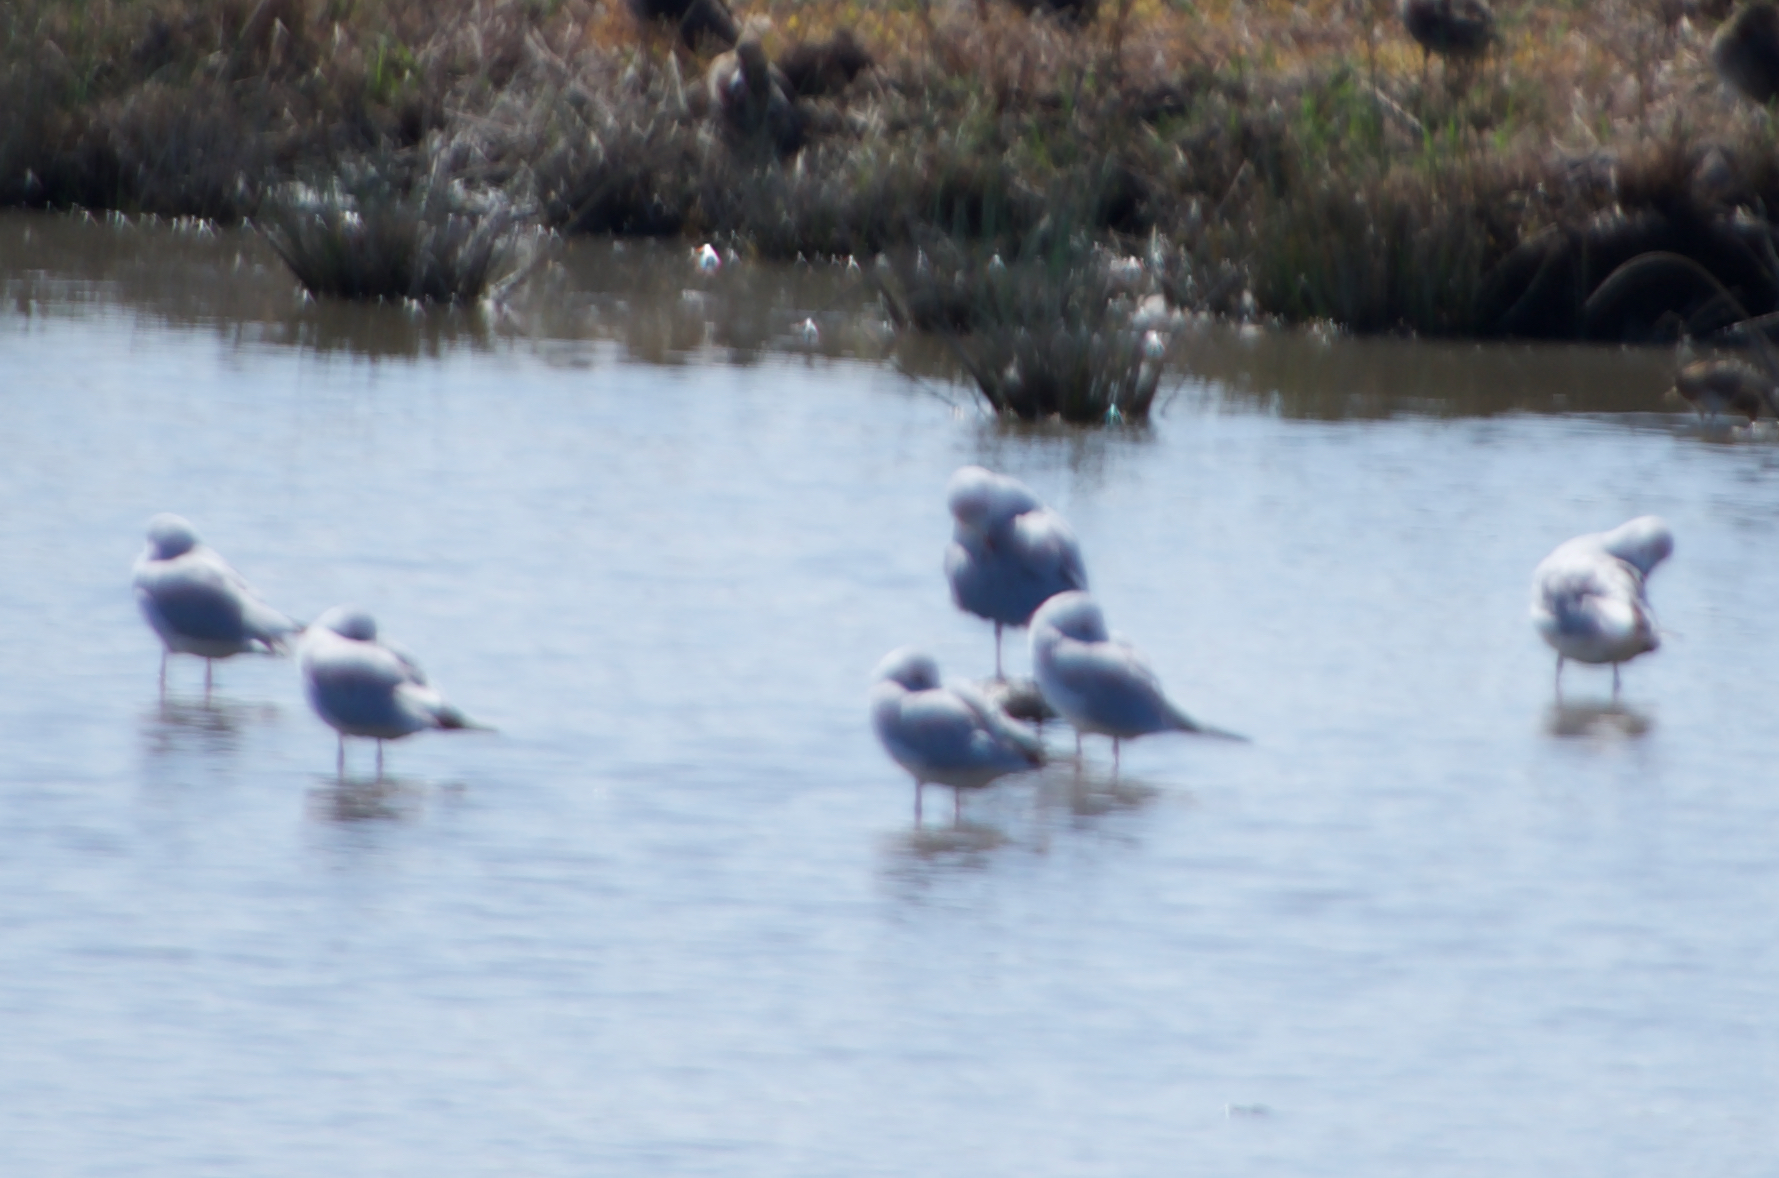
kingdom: Animalia
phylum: Chordata
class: Aves
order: Charadriiformes
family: Laridae
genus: Chroicocephalus
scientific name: Chroicocephalus ridibundus
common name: Black-headed gull
